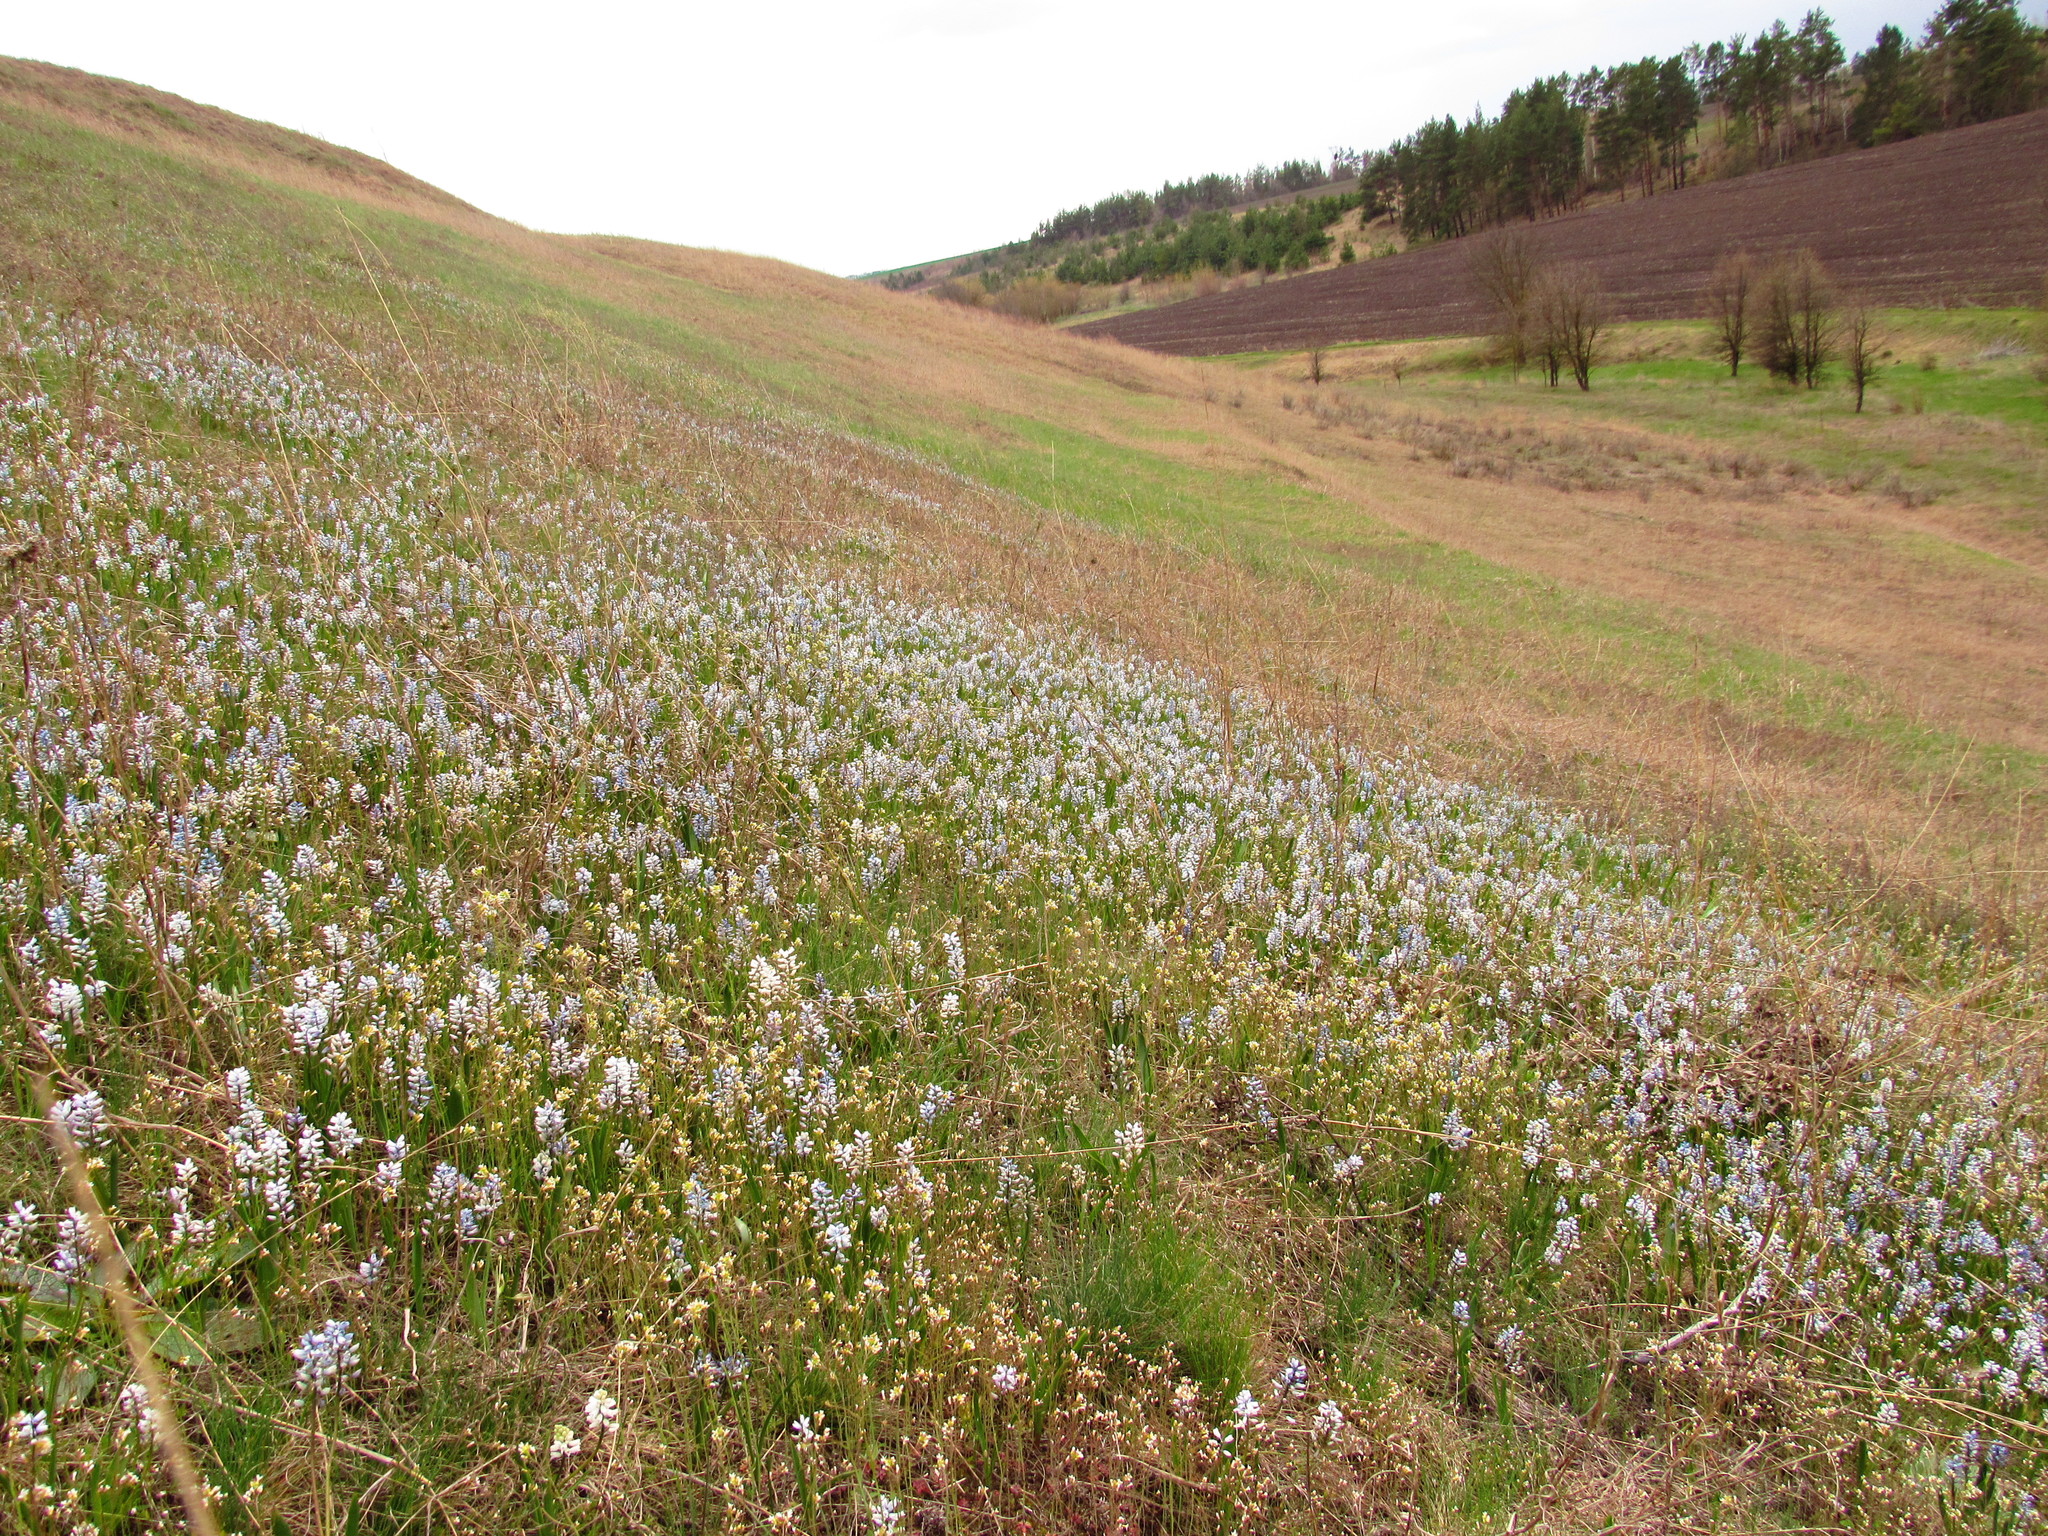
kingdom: Plantae
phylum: Tracheophyta
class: Liliopsida
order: Asparagales
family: Asparagaceae
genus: Hyacinthella
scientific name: Hyacinthella leucophaea
